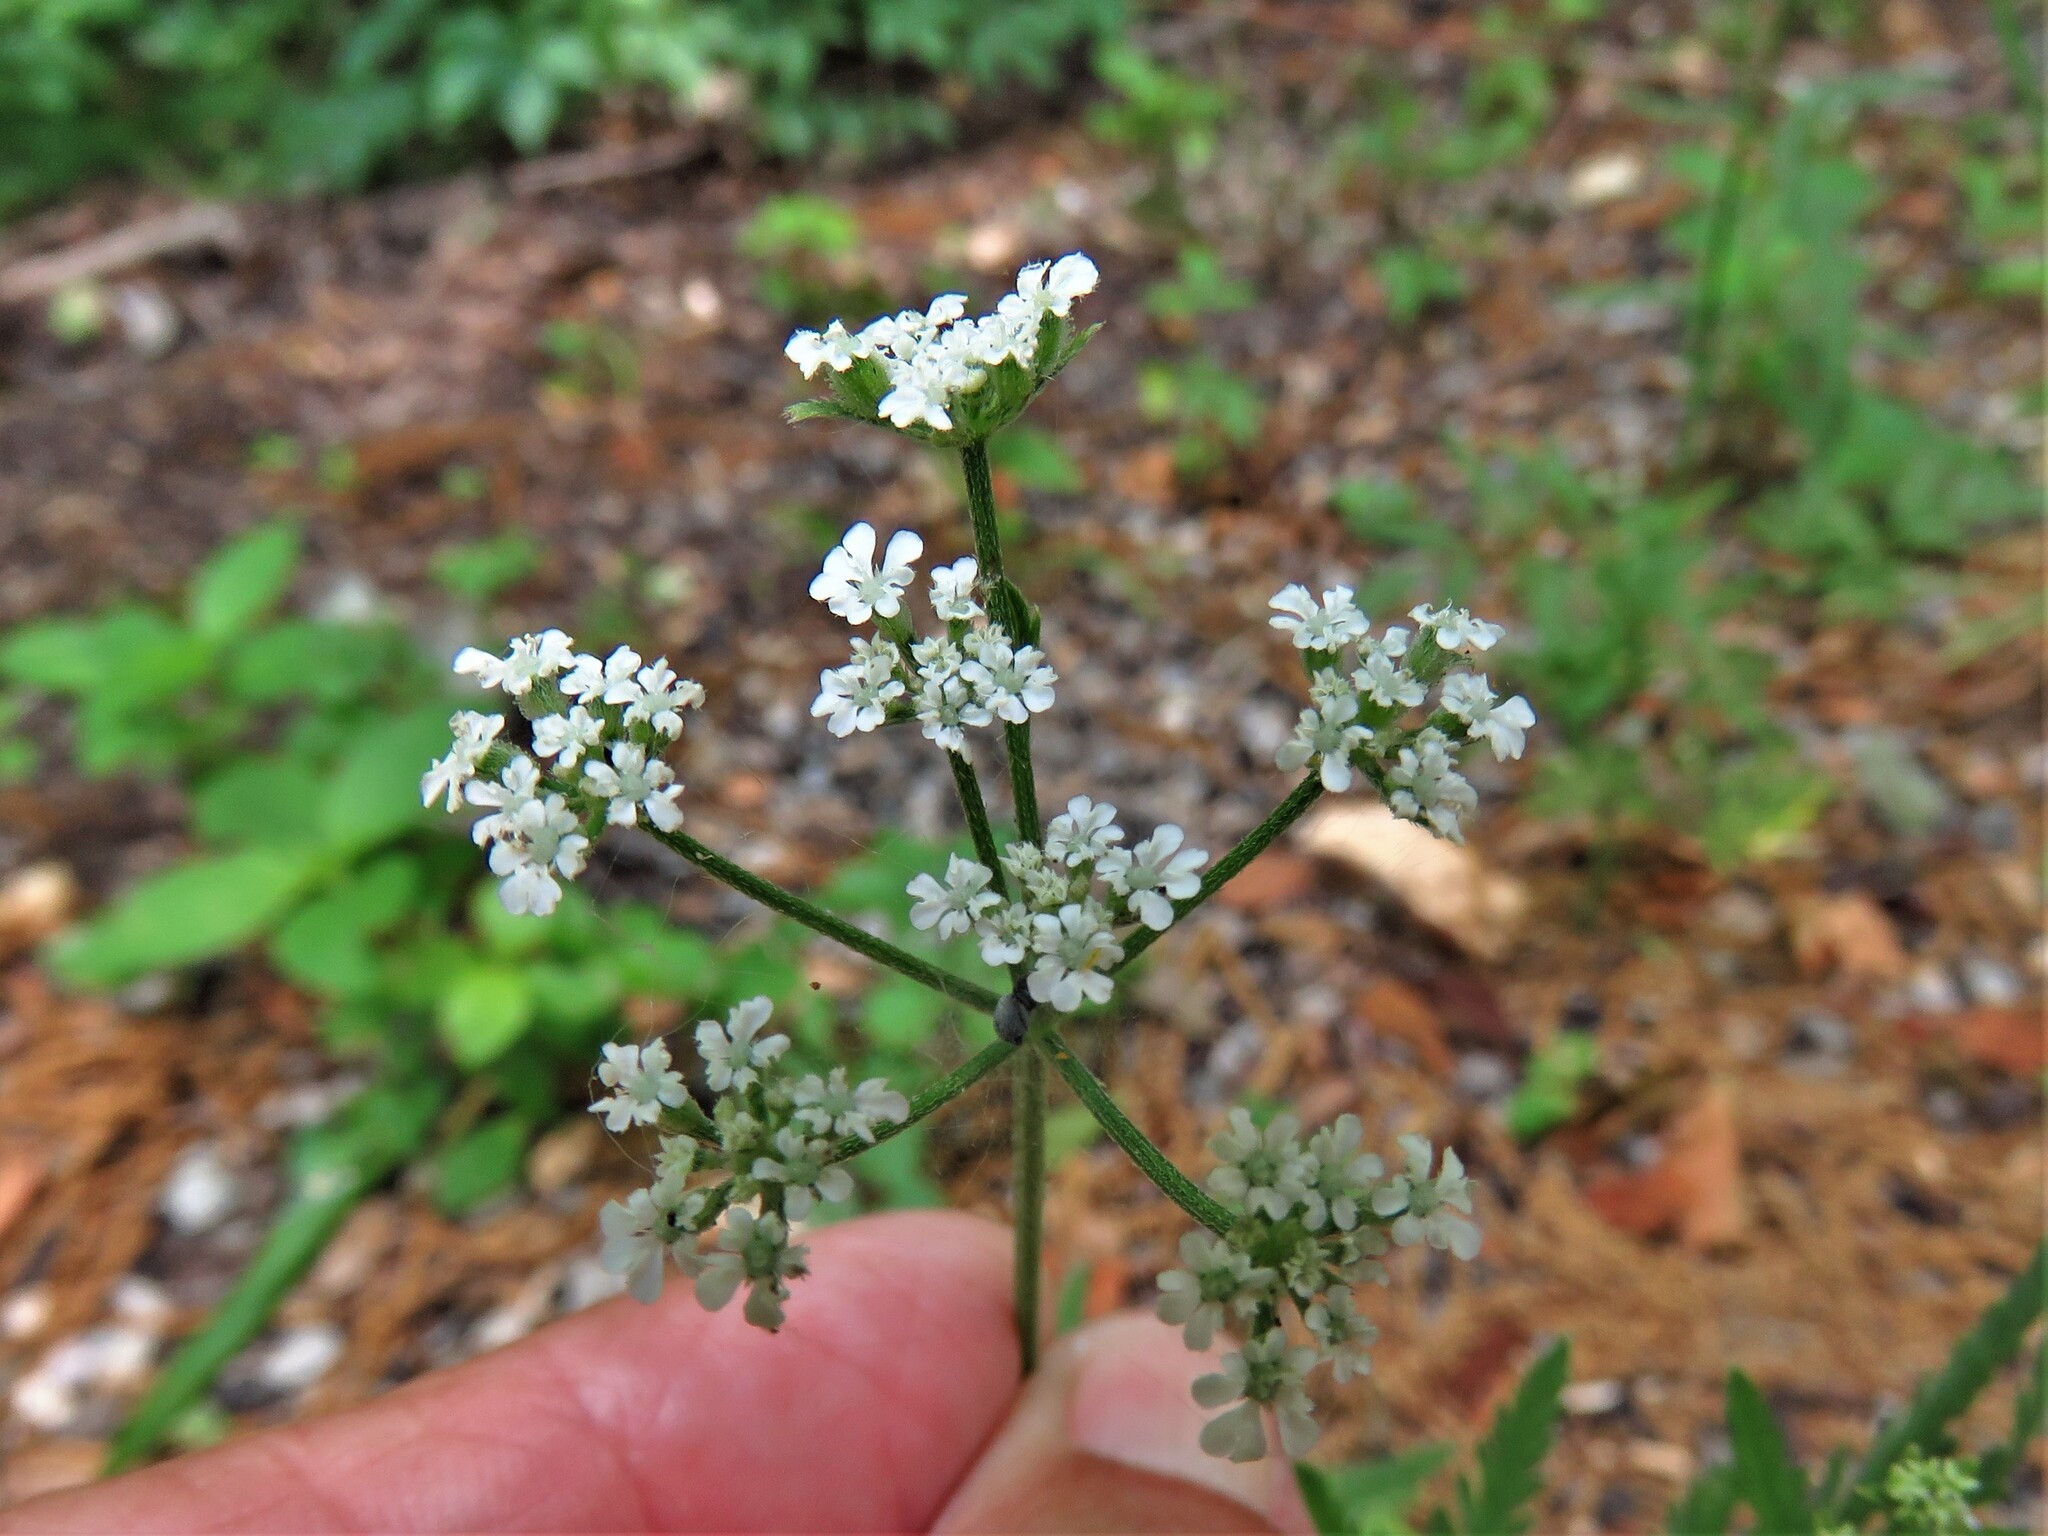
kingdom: Plantae
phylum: Tracheophyta
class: Magnoliopsida
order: Apiales
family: Apiaceae
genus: Torilis
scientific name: Torilis arvensis
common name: Spreading hedge-parsley
